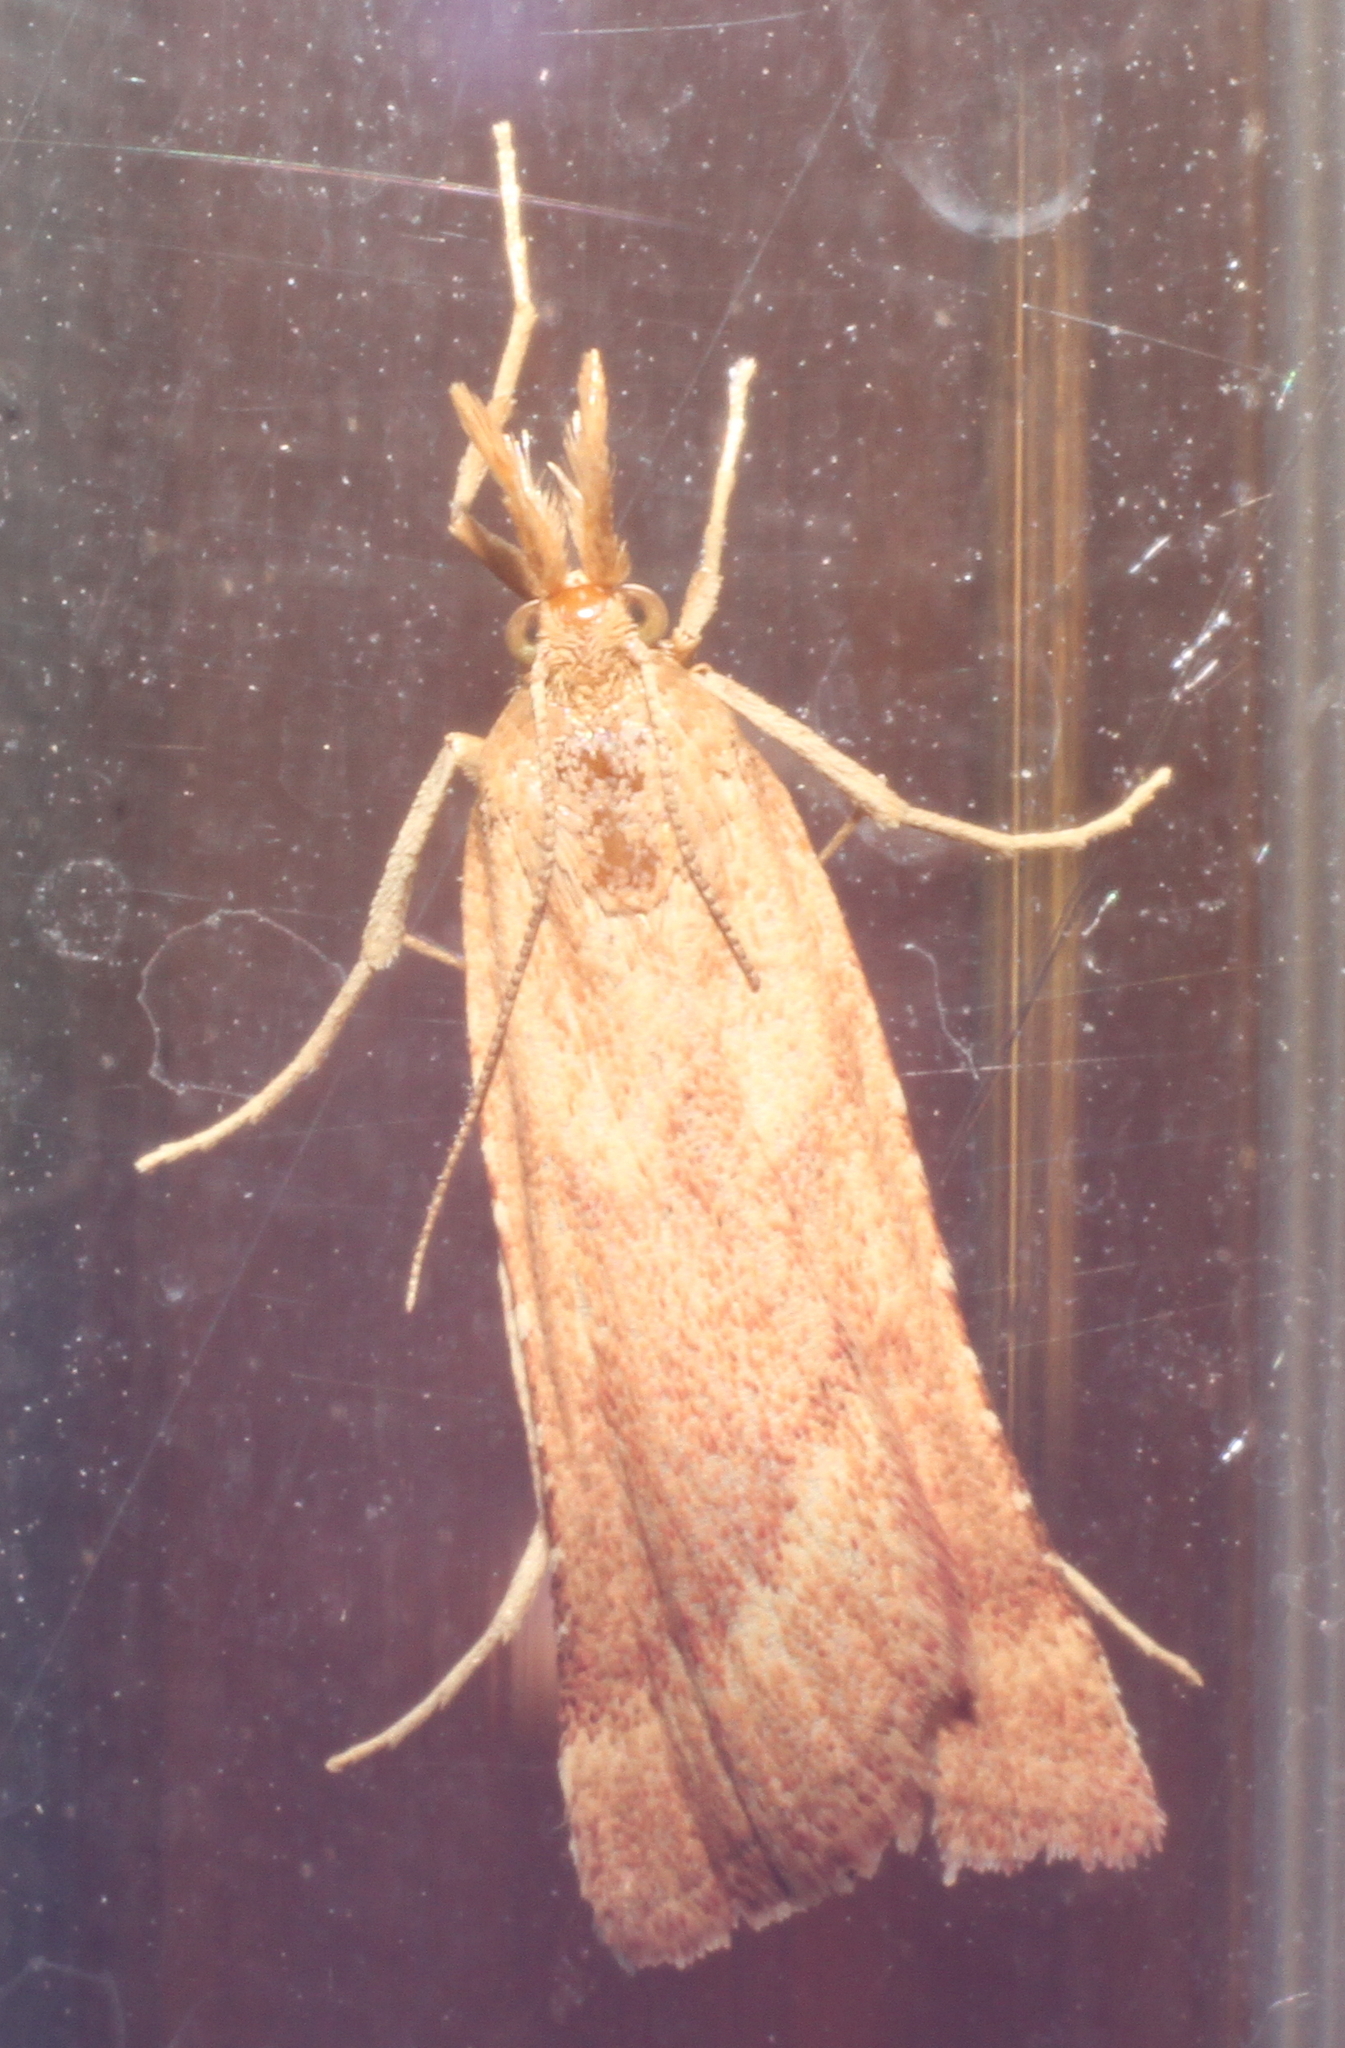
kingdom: Animalia
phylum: Arthropoda
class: Insecta
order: Lepidoptera
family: Pyralidae
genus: Synaphe
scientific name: Synaphe punctalis
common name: Long-legged tabby
